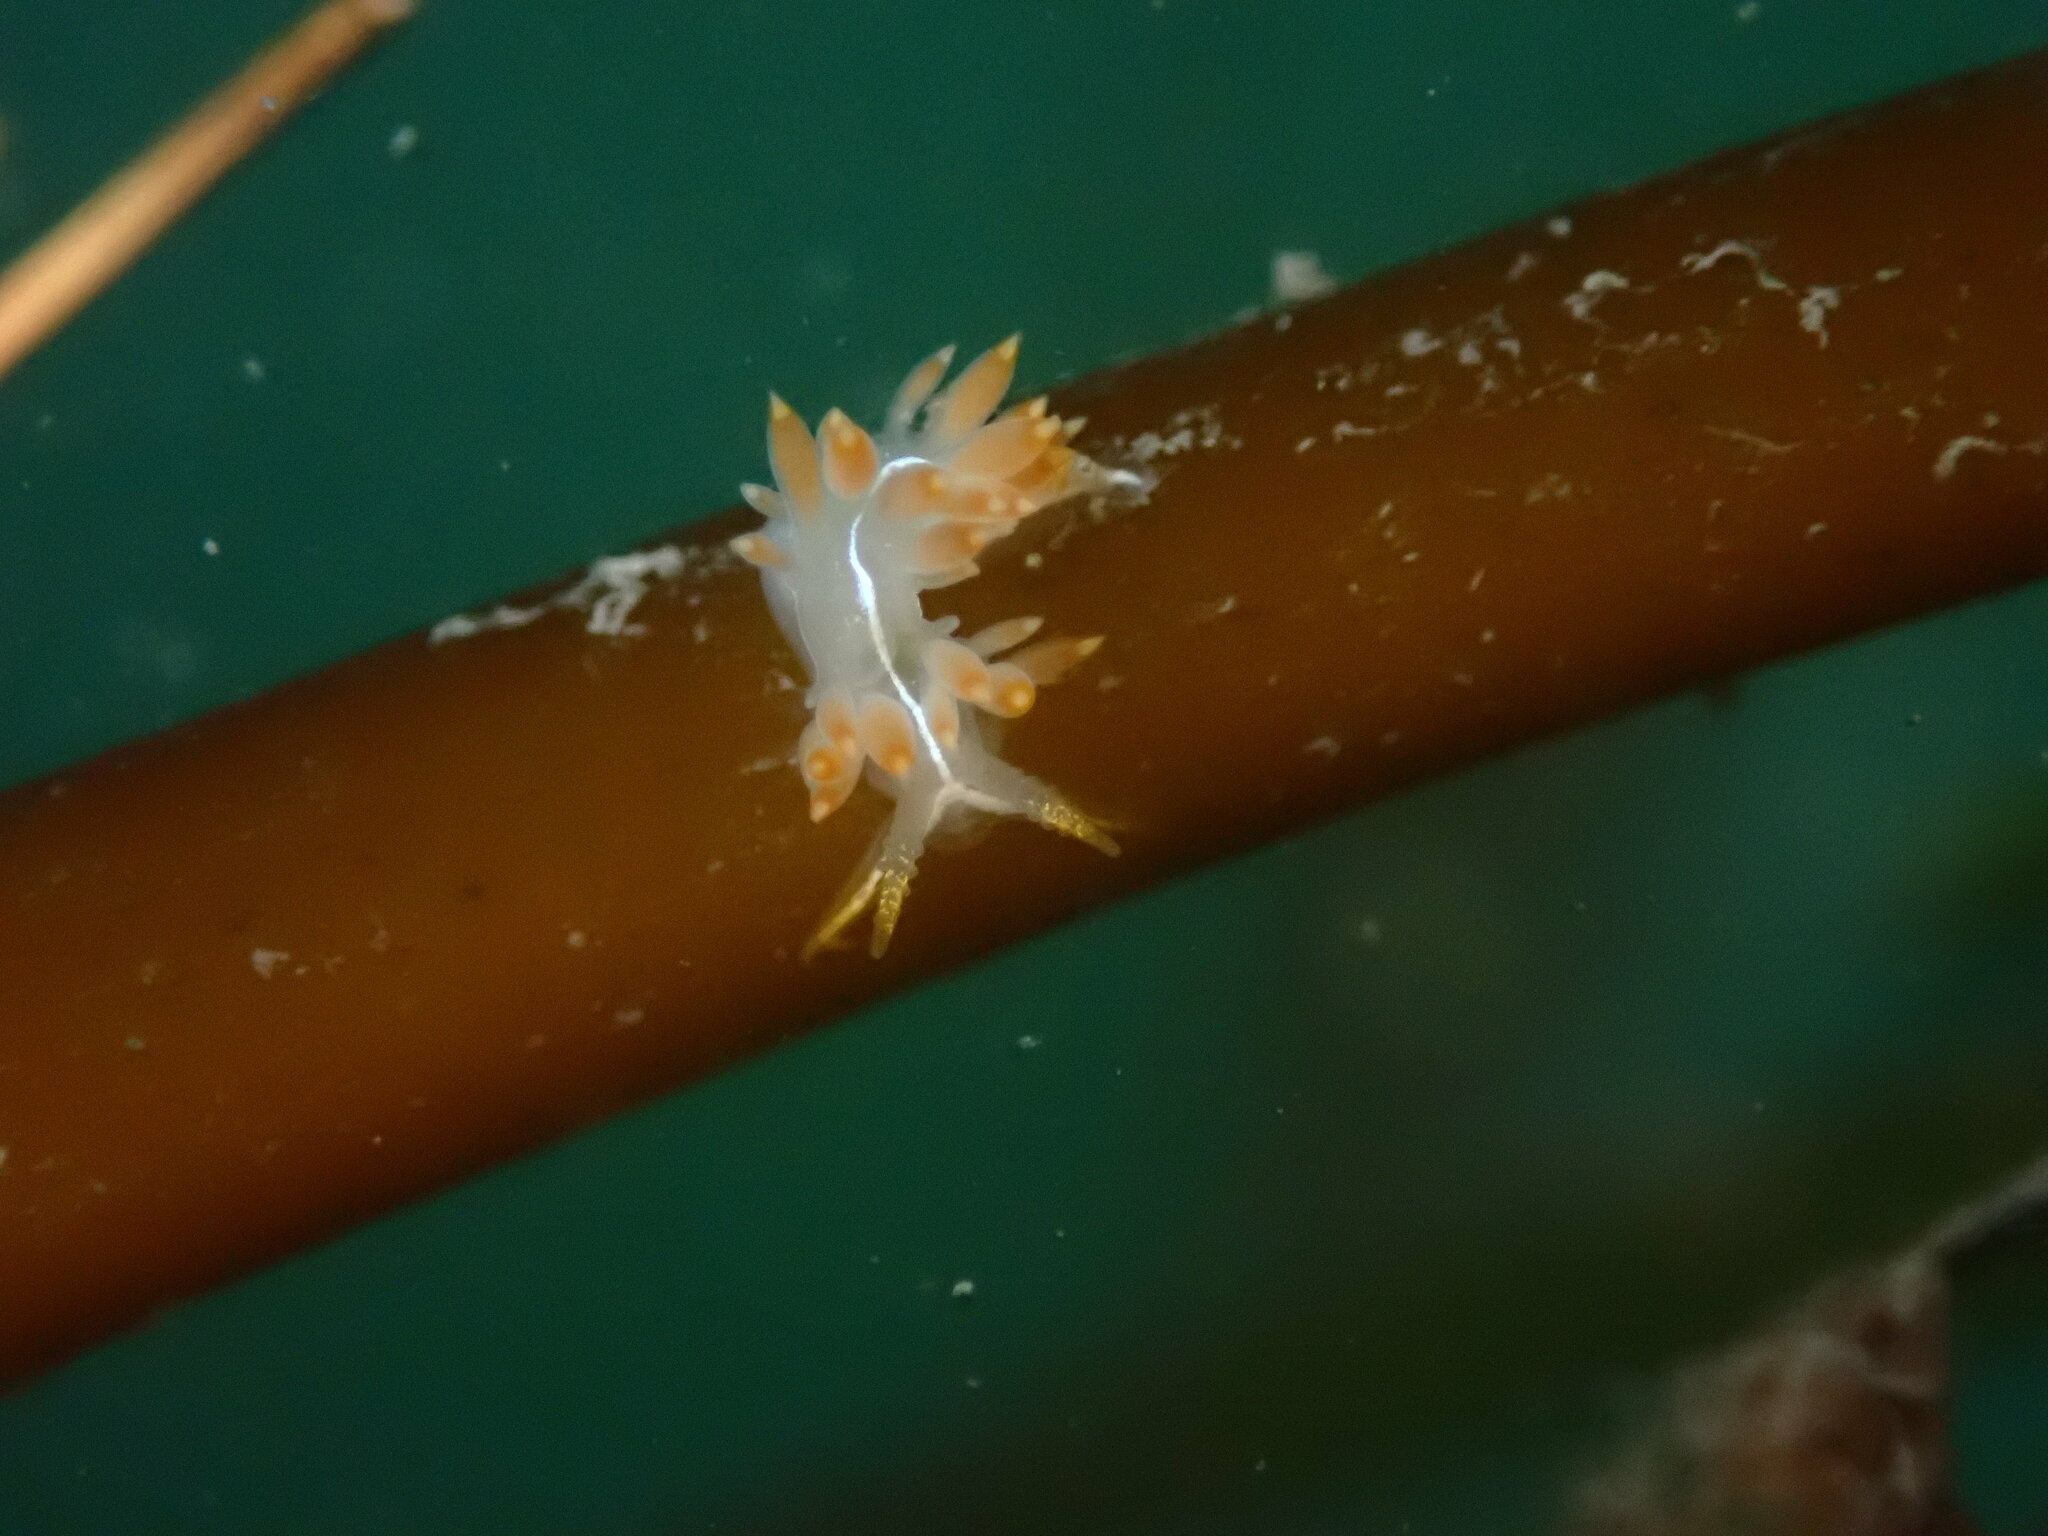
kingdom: Animalia
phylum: Mollusca
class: Gastropoda
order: Nudibranchia
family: Coryphellidae
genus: Coryphella
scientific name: Coryphella trilineata
